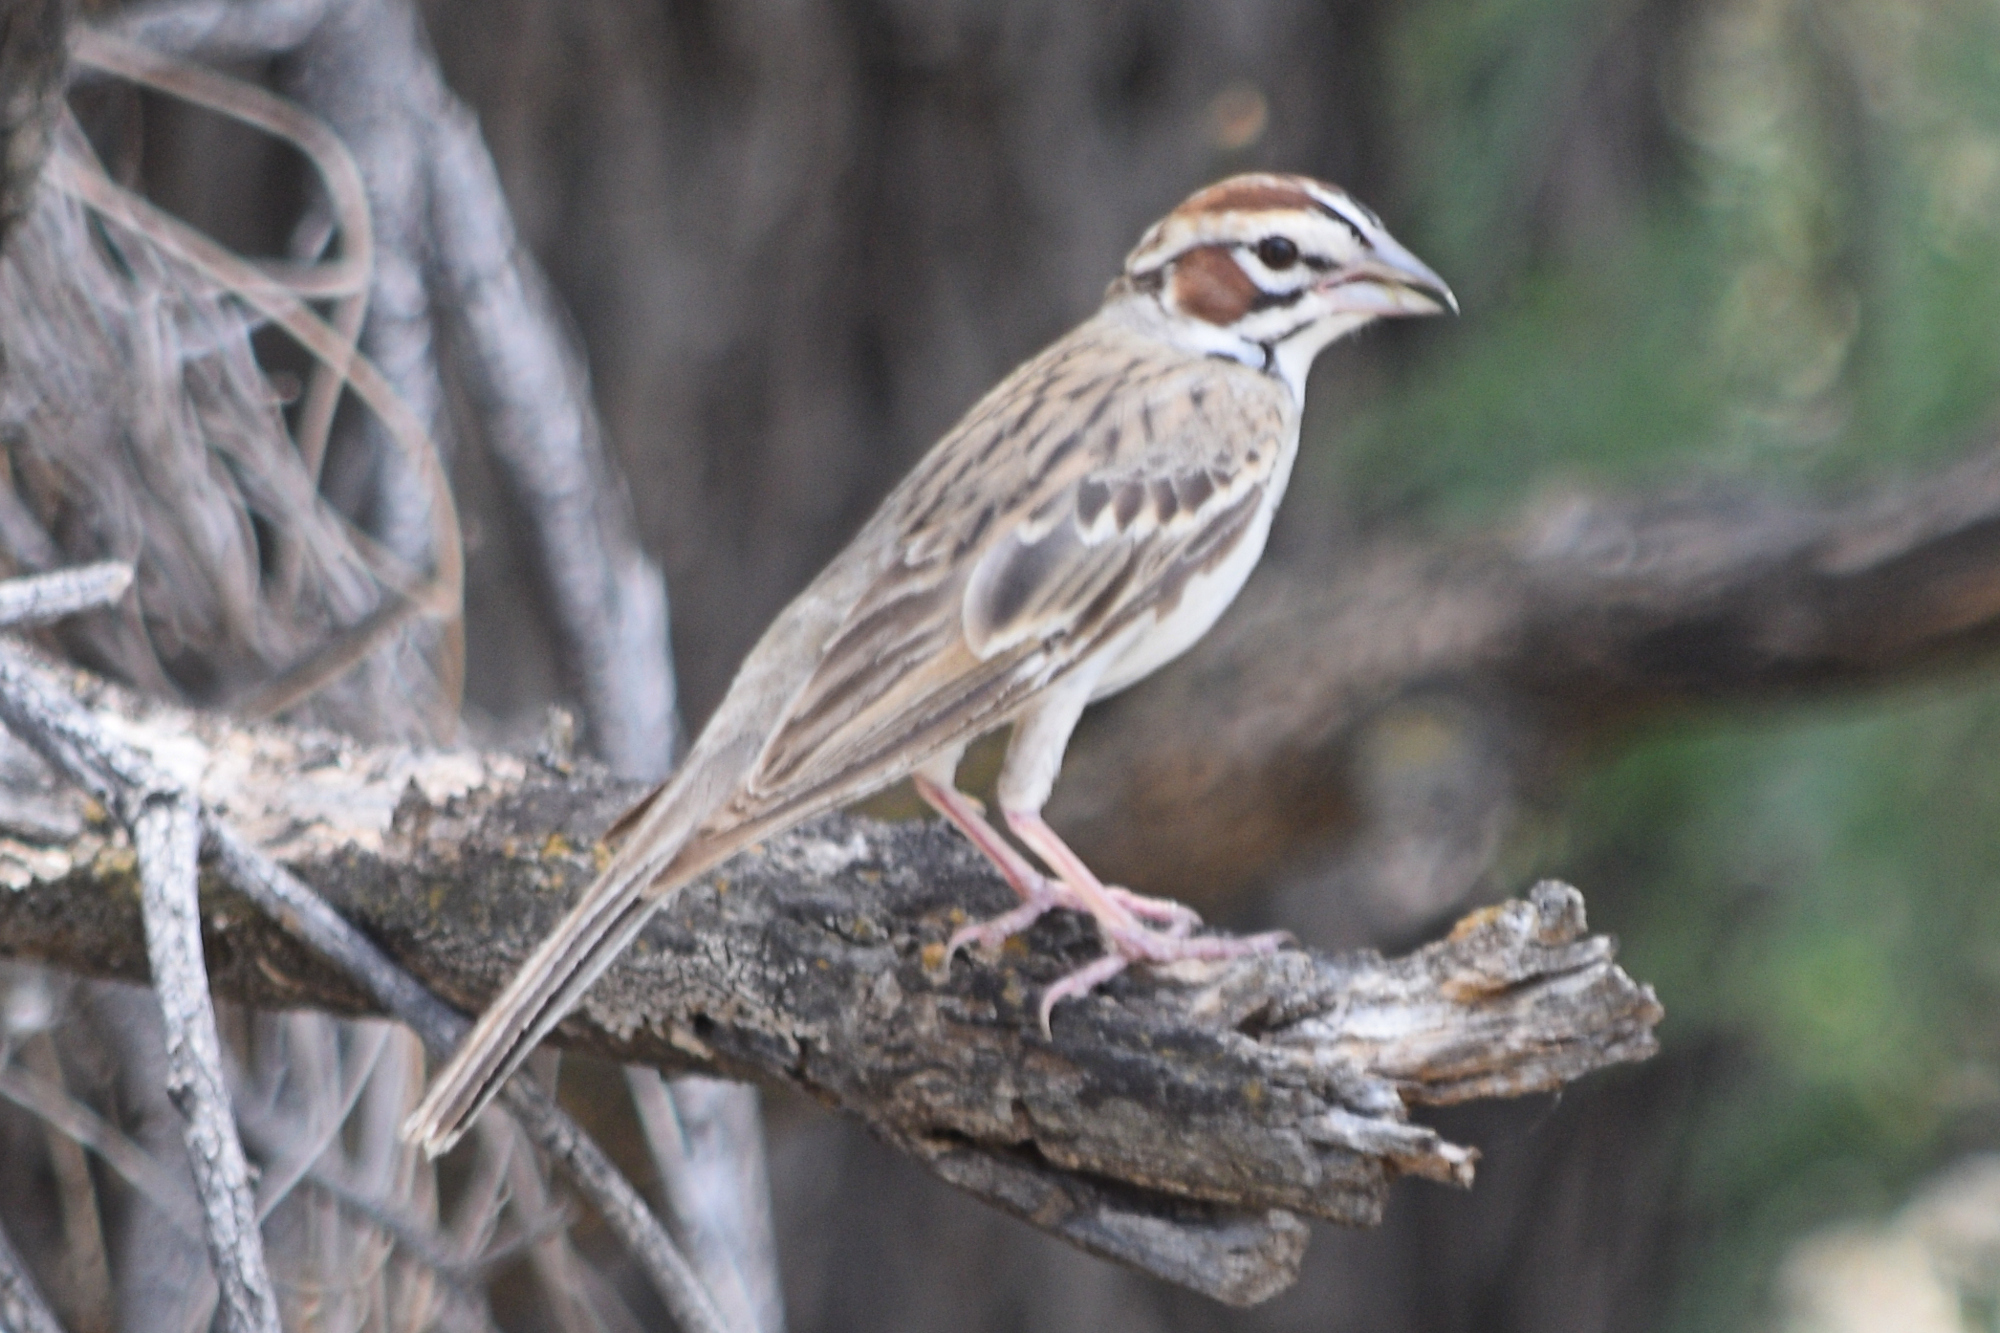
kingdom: Animalia
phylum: Chordata
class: Aves
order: Passeriformes
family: Passerellidae
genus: Chondestes
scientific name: Chondestes grammacus
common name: Lark sparrow
